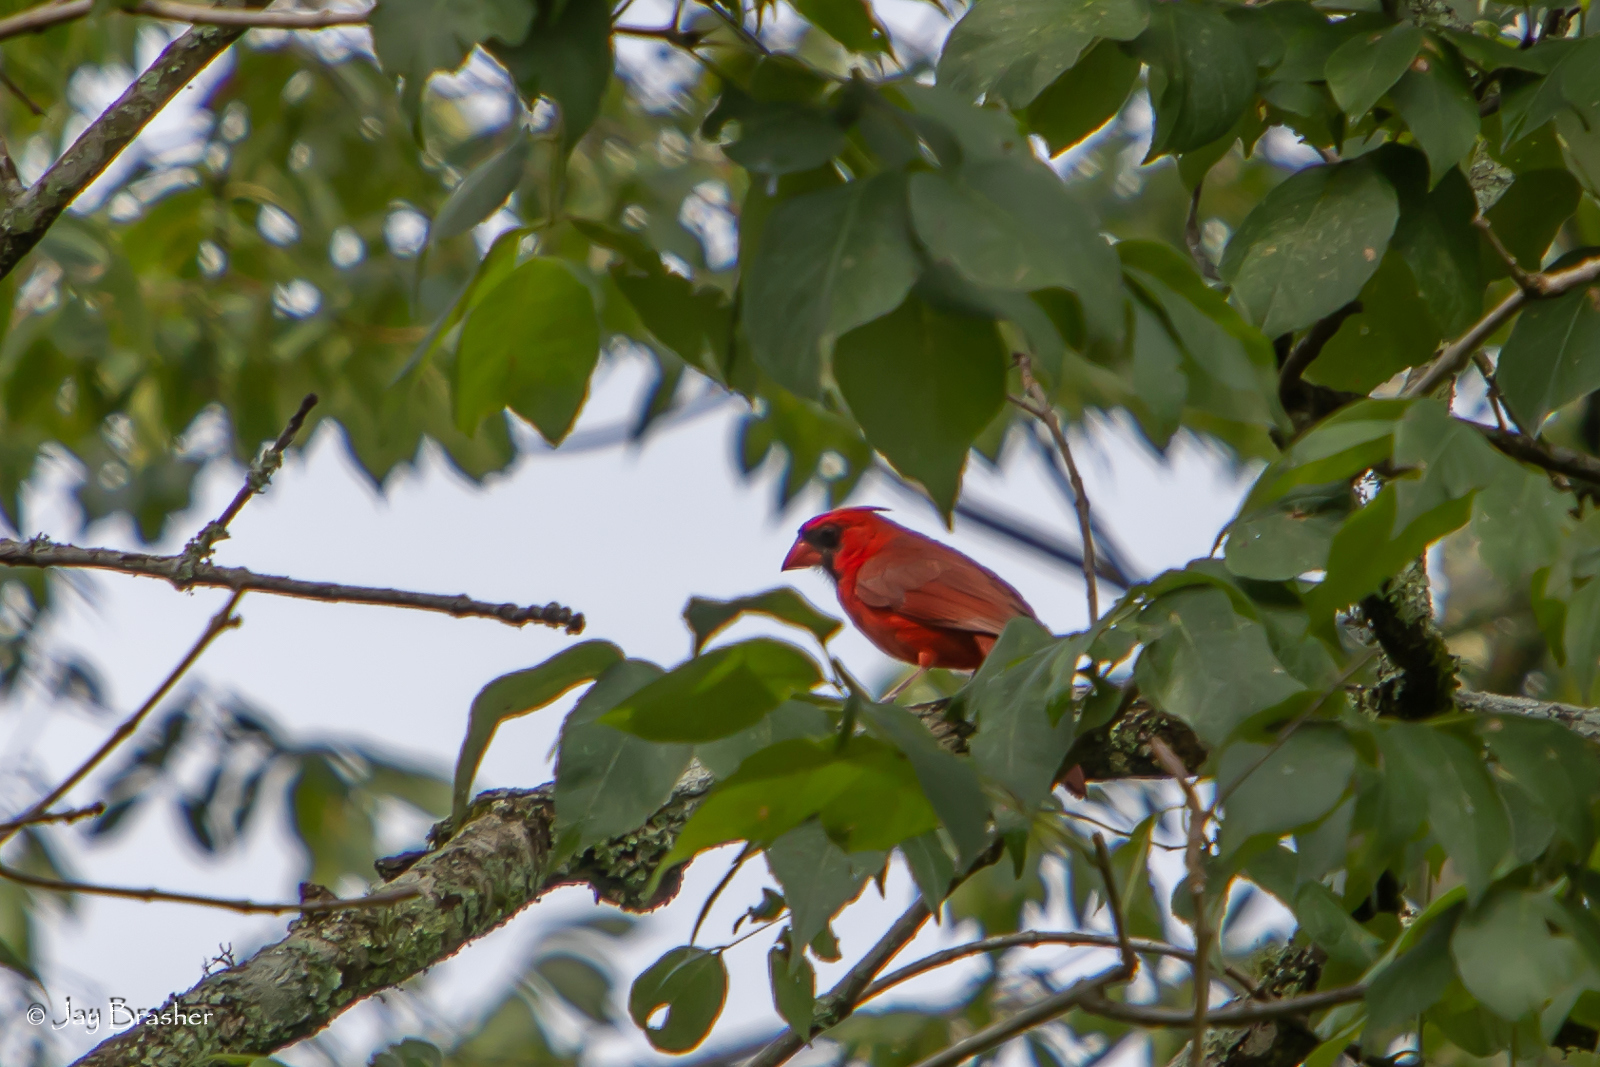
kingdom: Animalia
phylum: Chordata
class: Aves
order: Passeriformes
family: Cardinalidae
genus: Cardinalis
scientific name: Cardinalis cardinalis
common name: Northern cardinal
